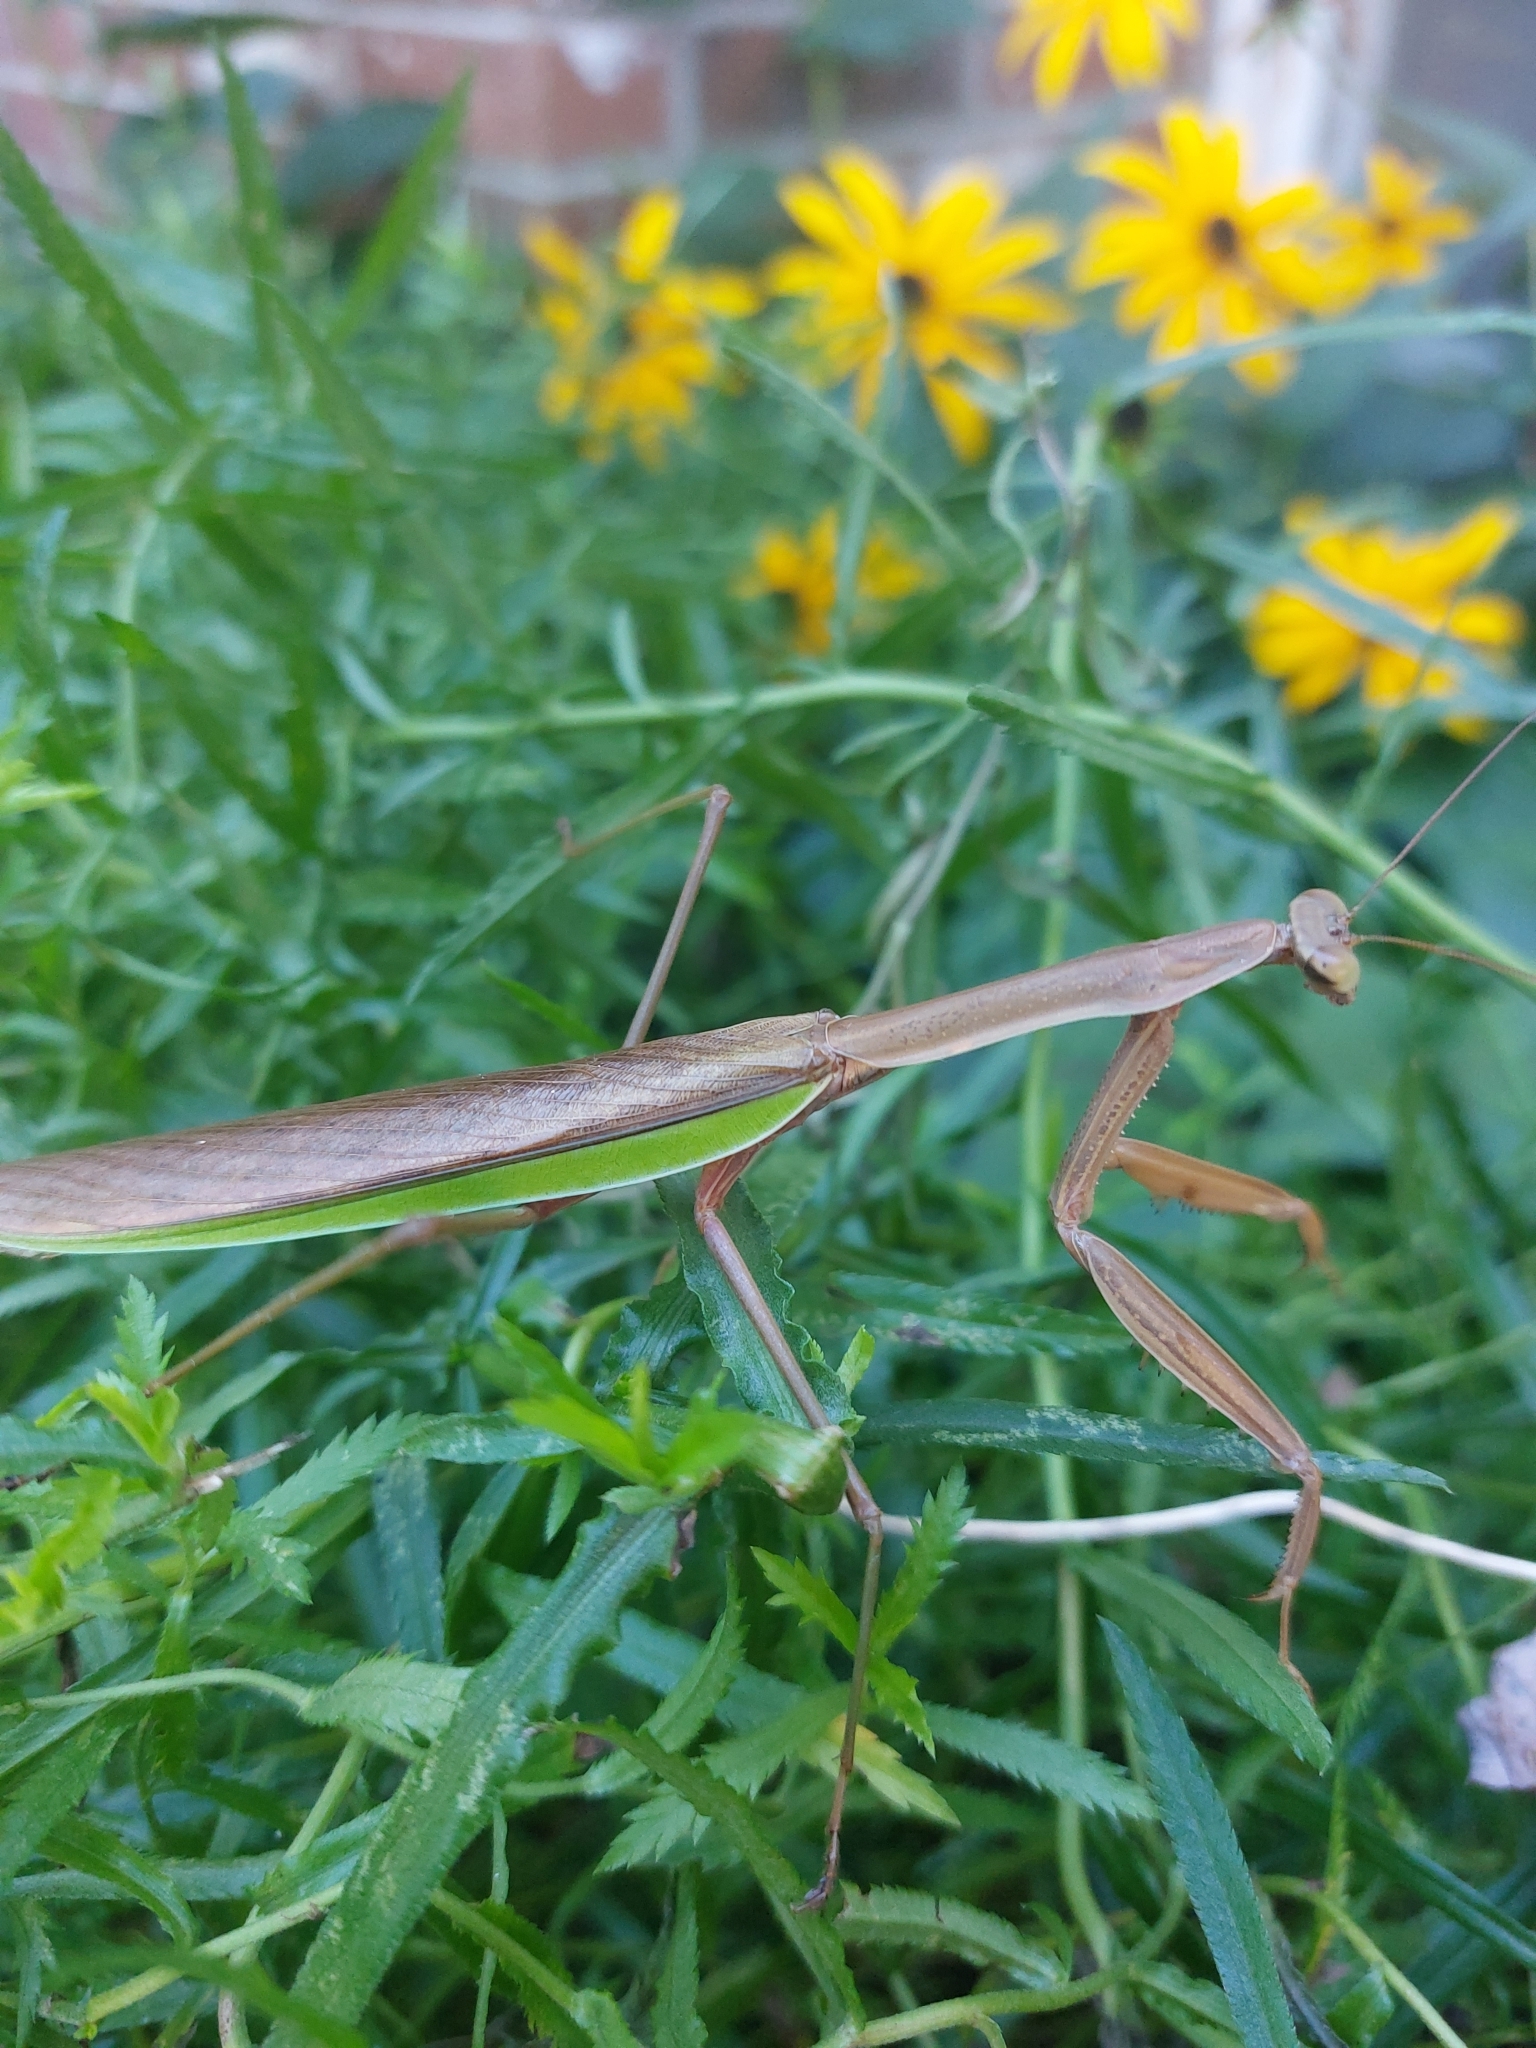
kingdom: Animalia
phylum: Arthropoda
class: Insecta
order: Mantodea
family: Mantidae
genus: Tenodera
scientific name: Tenodera sinensis
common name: Chinese mantis
